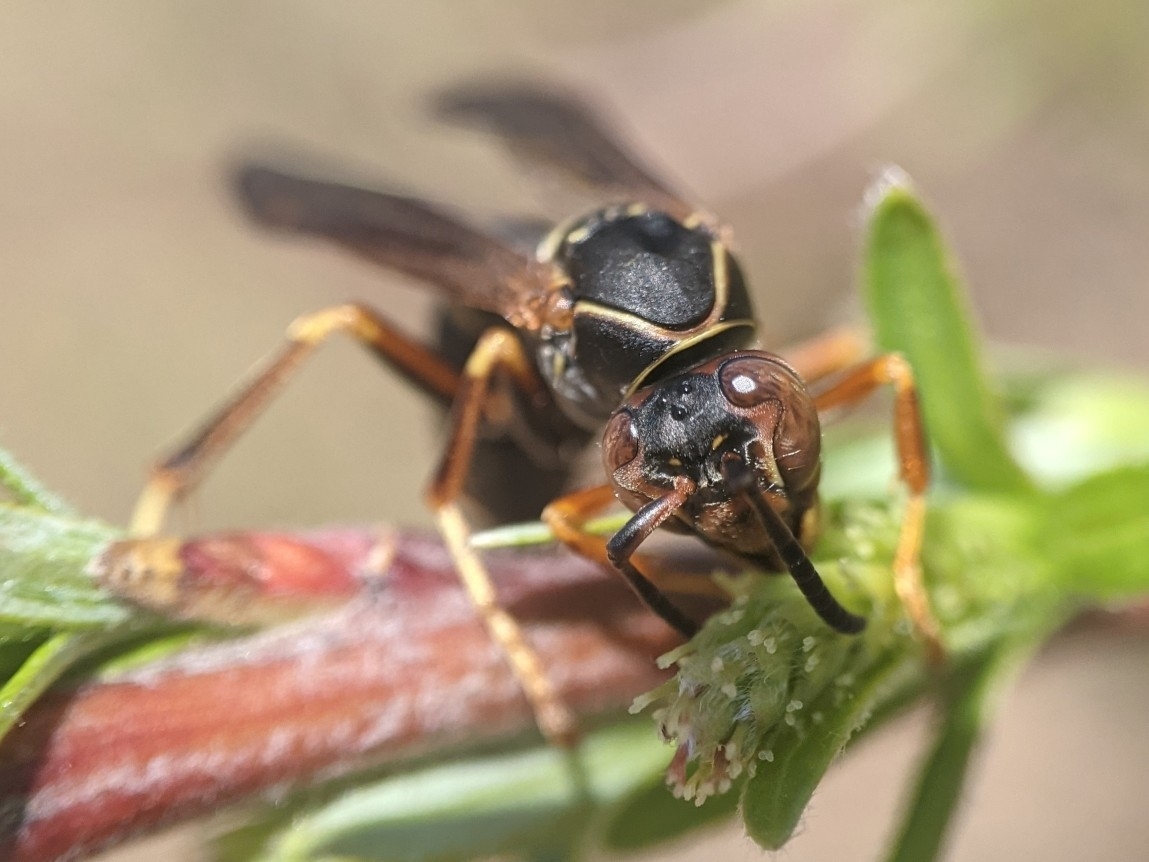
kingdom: Animalia
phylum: Arthropoda
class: Insecta
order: Hymenoptera
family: Eumenidae
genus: Polistes
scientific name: Polistes fuscatus
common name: Dark paper wasp
